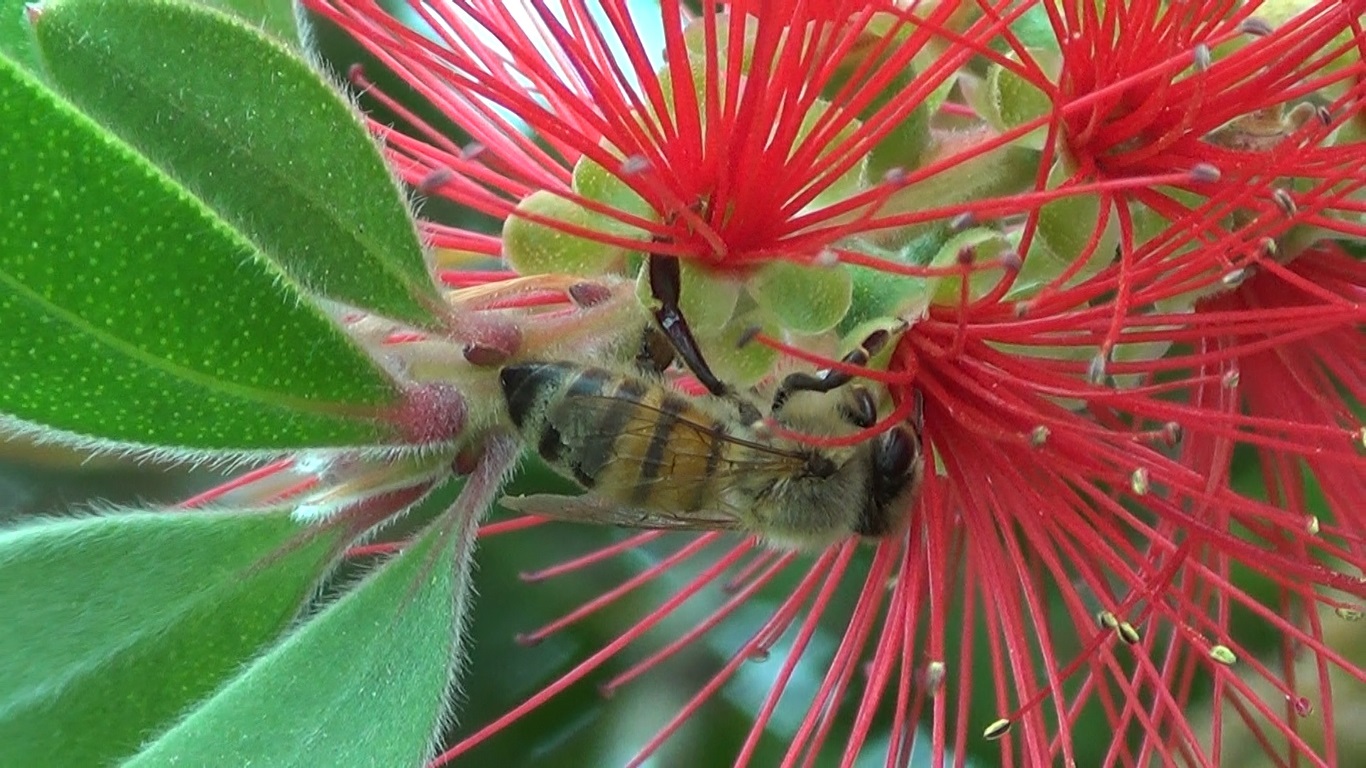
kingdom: Animalia
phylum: Arthropoda
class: Insecta
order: Hymenoptera
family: Apidae
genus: Apis
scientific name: Apis mellifera
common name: Honey bee
